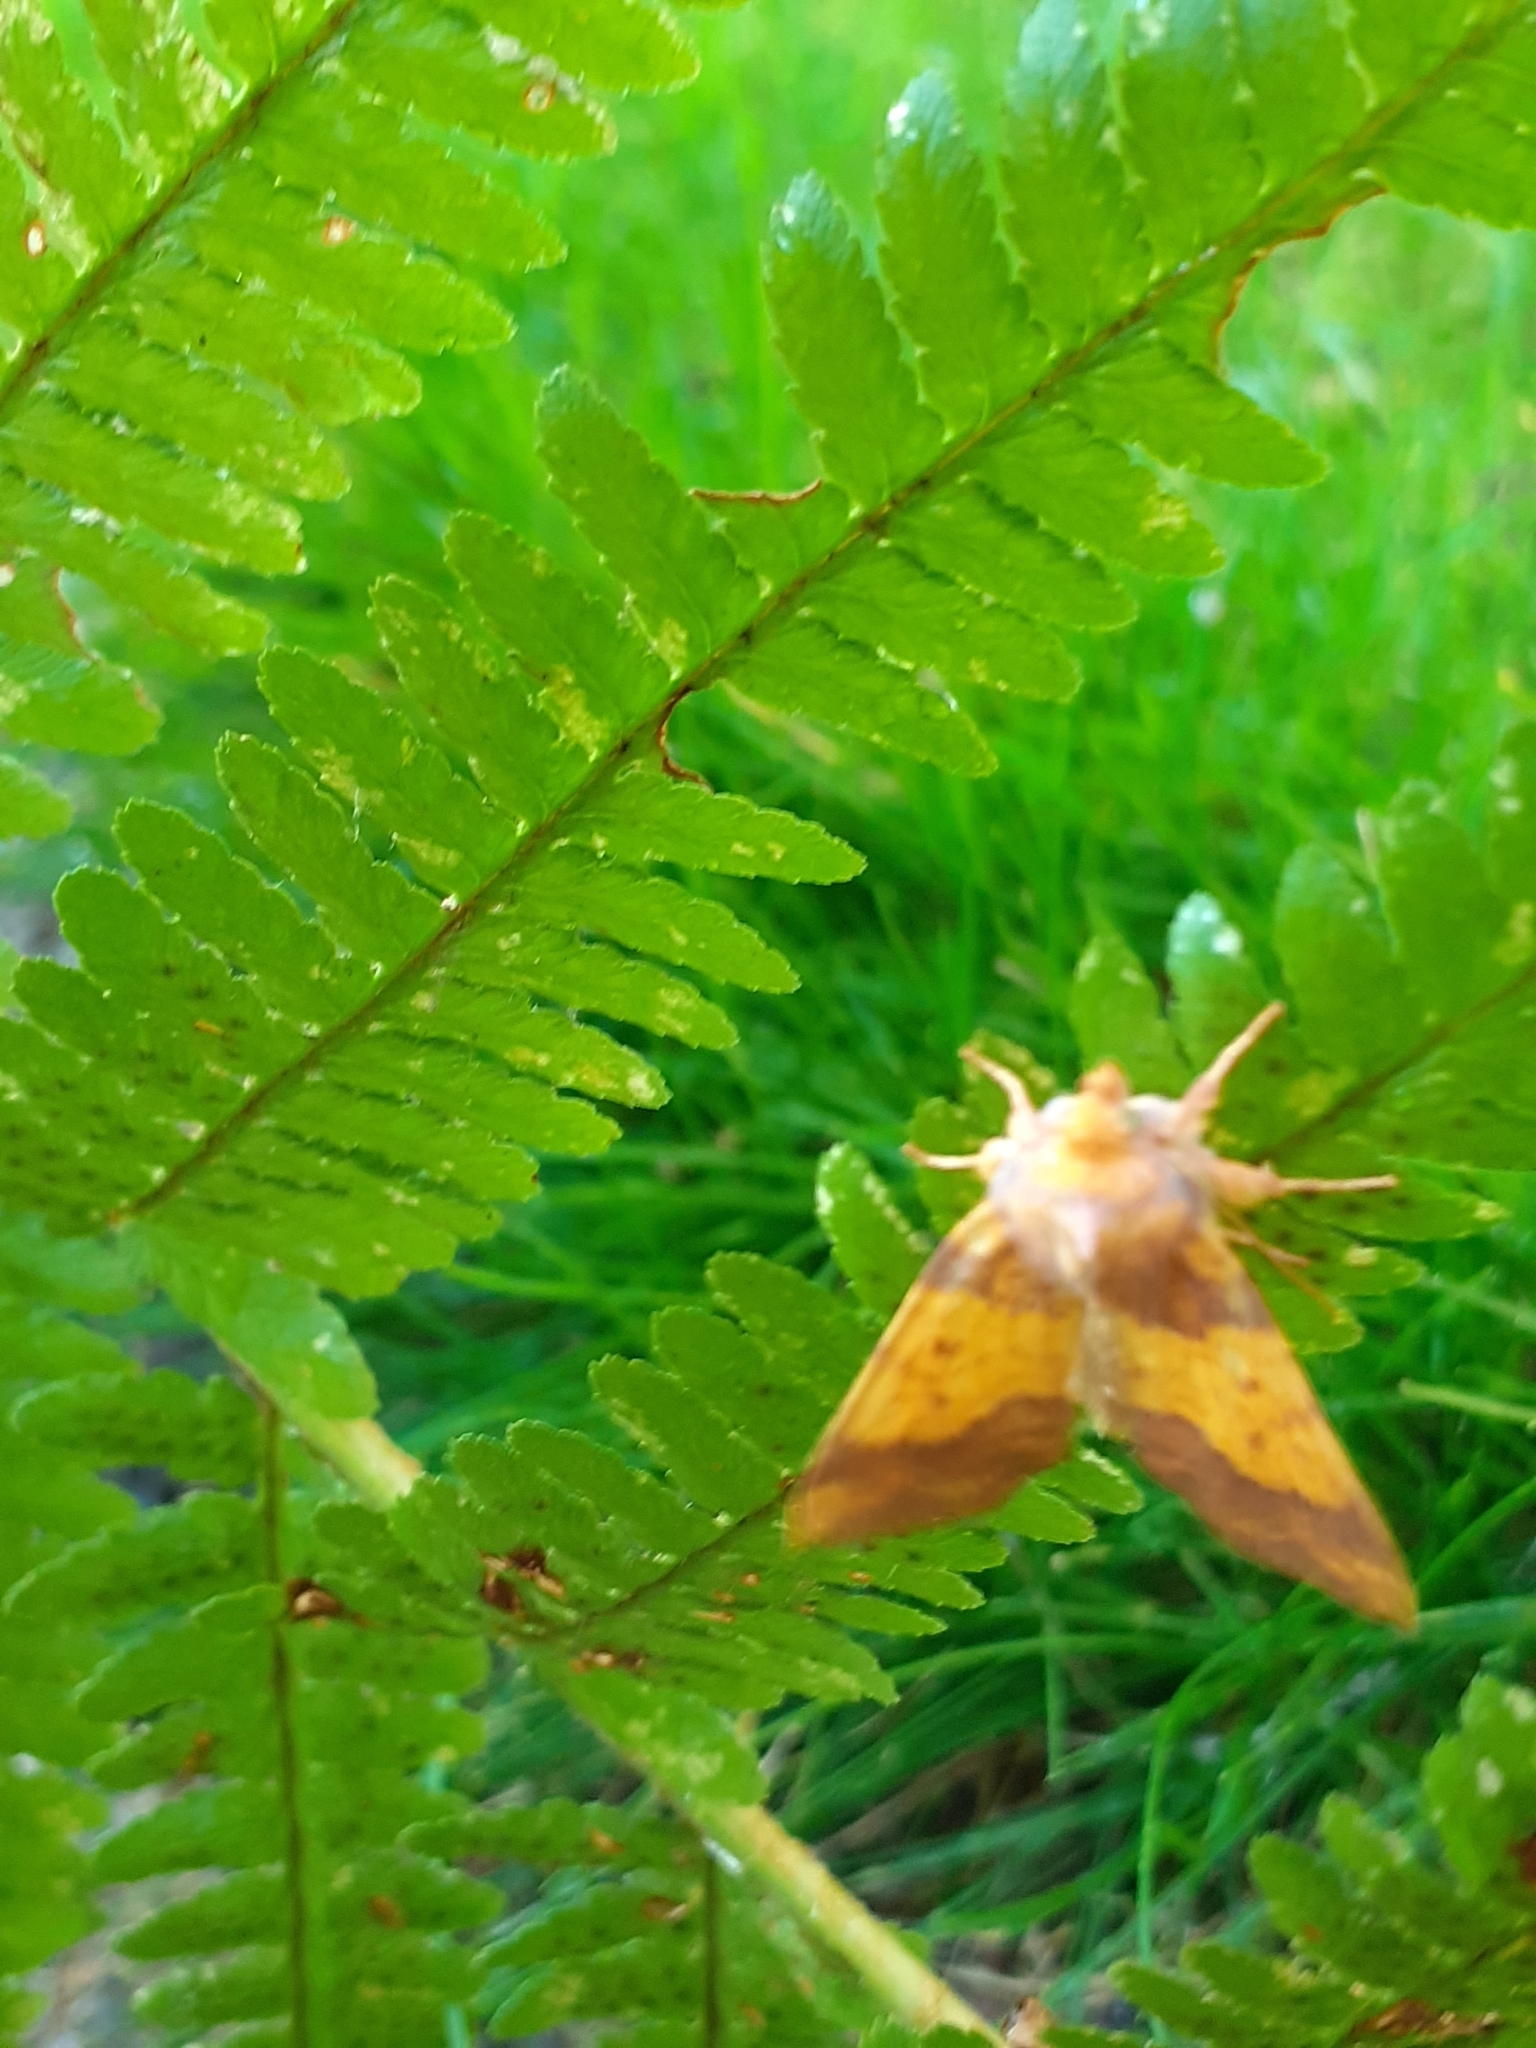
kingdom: Animalia
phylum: Arthropoda
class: Insecta
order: Lepidoptera
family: Noctuidae
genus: Tiliacea
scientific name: Tiliacea aurago
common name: Barred sallow
